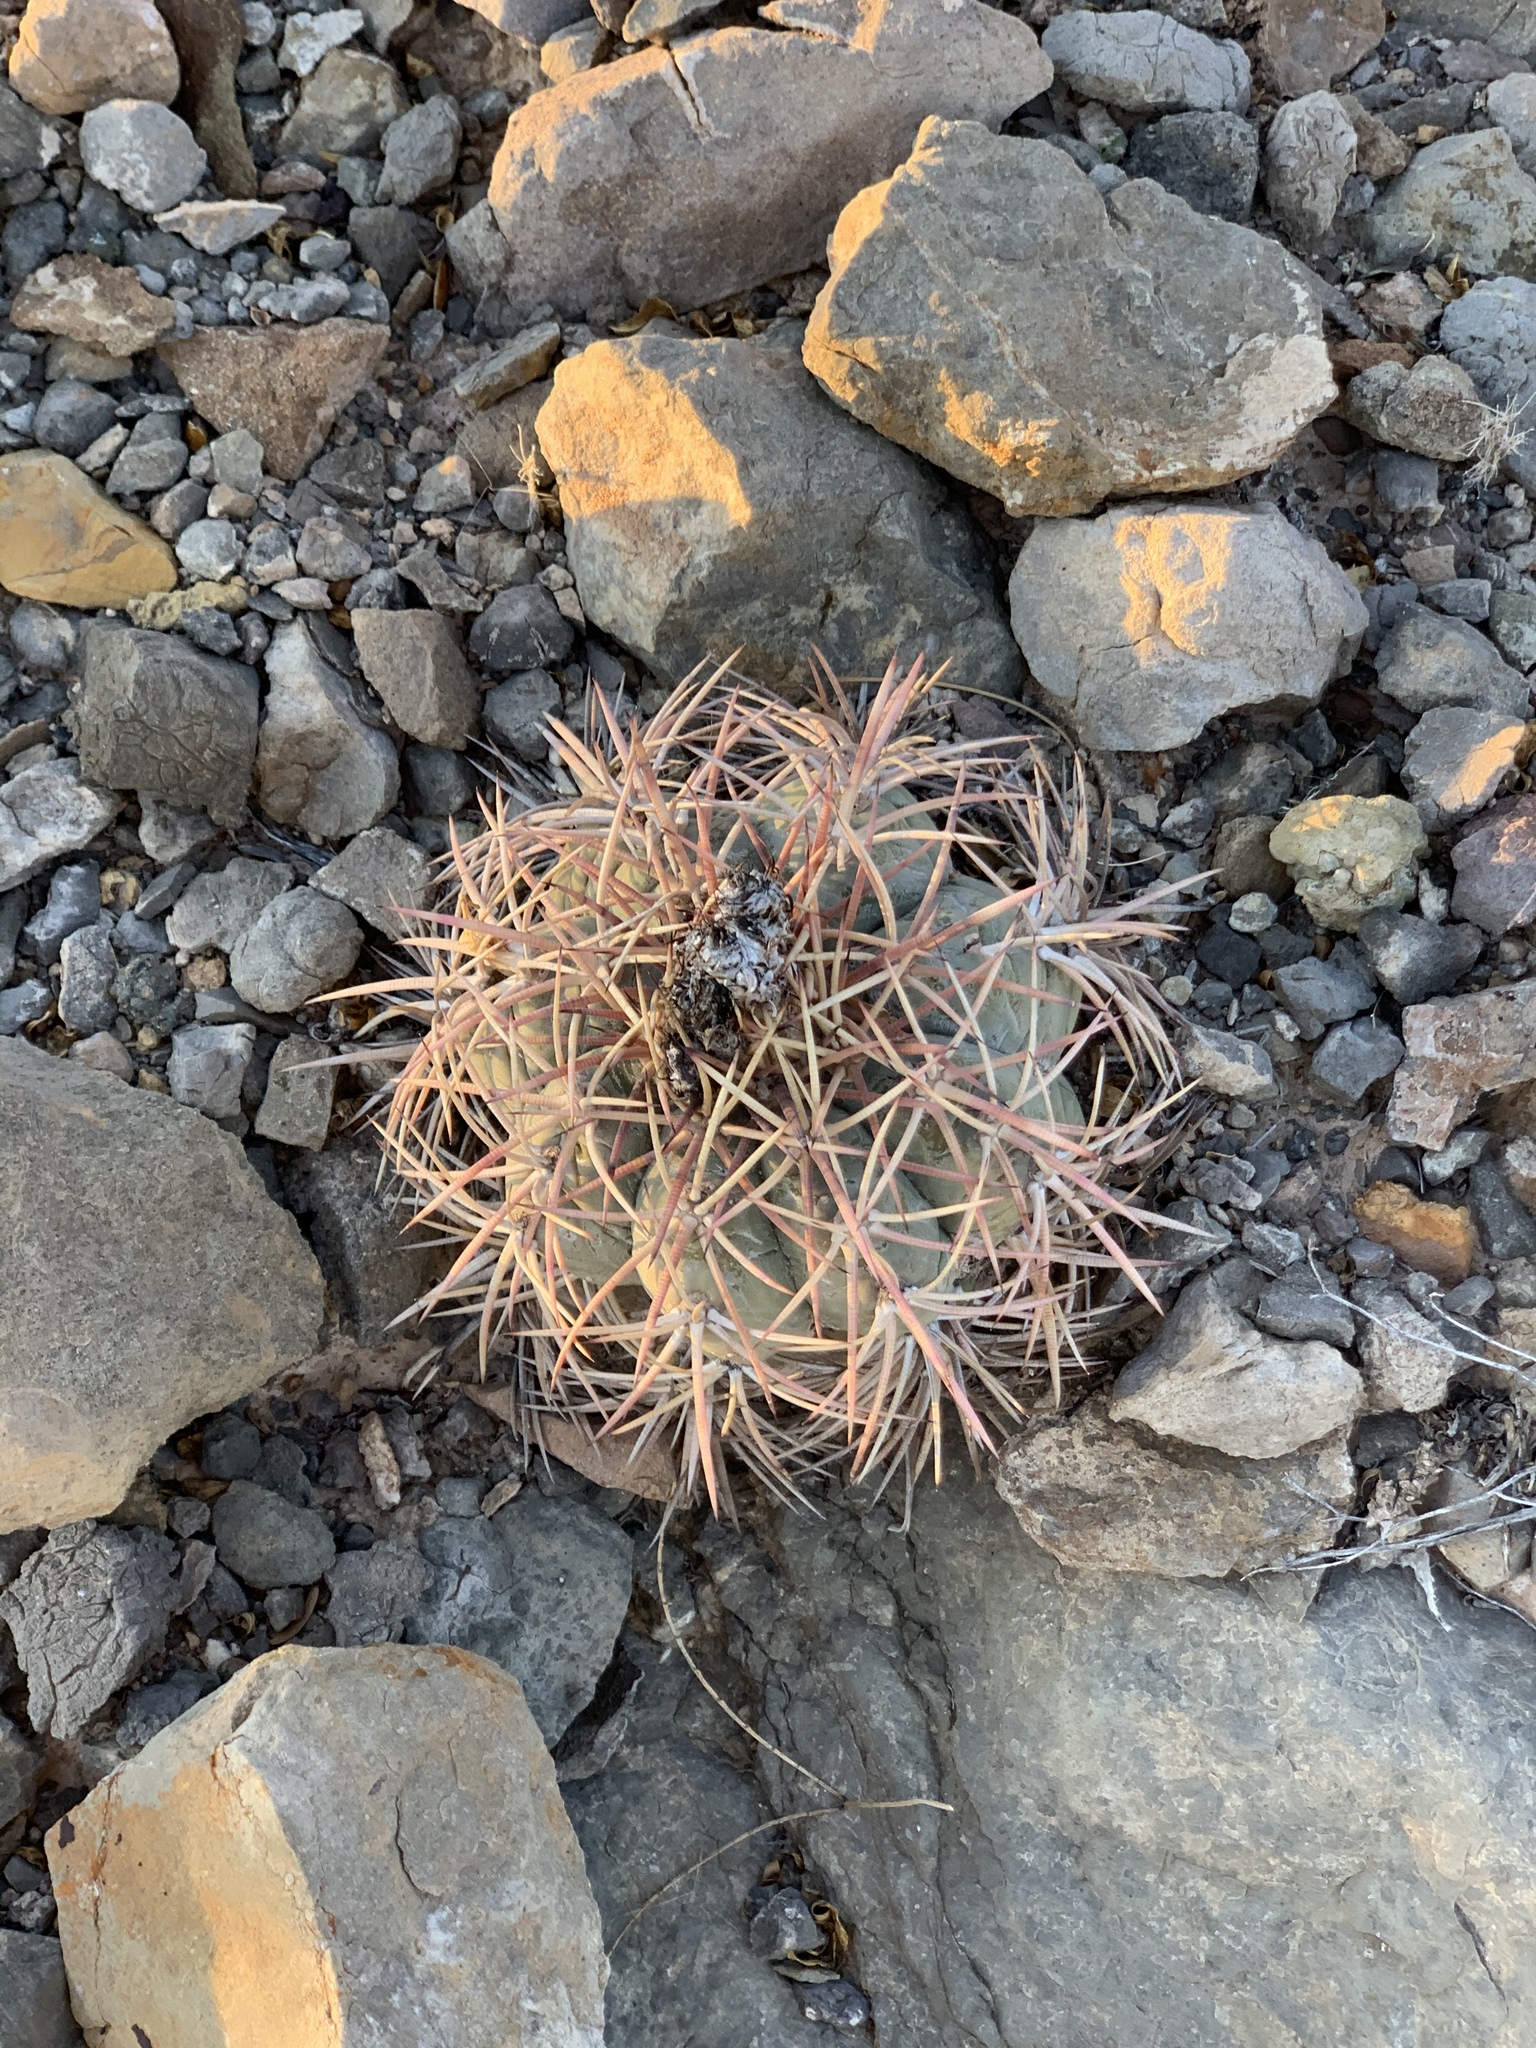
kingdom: Plantae
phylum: Tracheophyta
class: Magnoliopsida
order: Caryophyllales
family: Cactaceae
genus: Echinocactus
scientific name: Echinocactus horizonthalonius
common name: Devilshead
